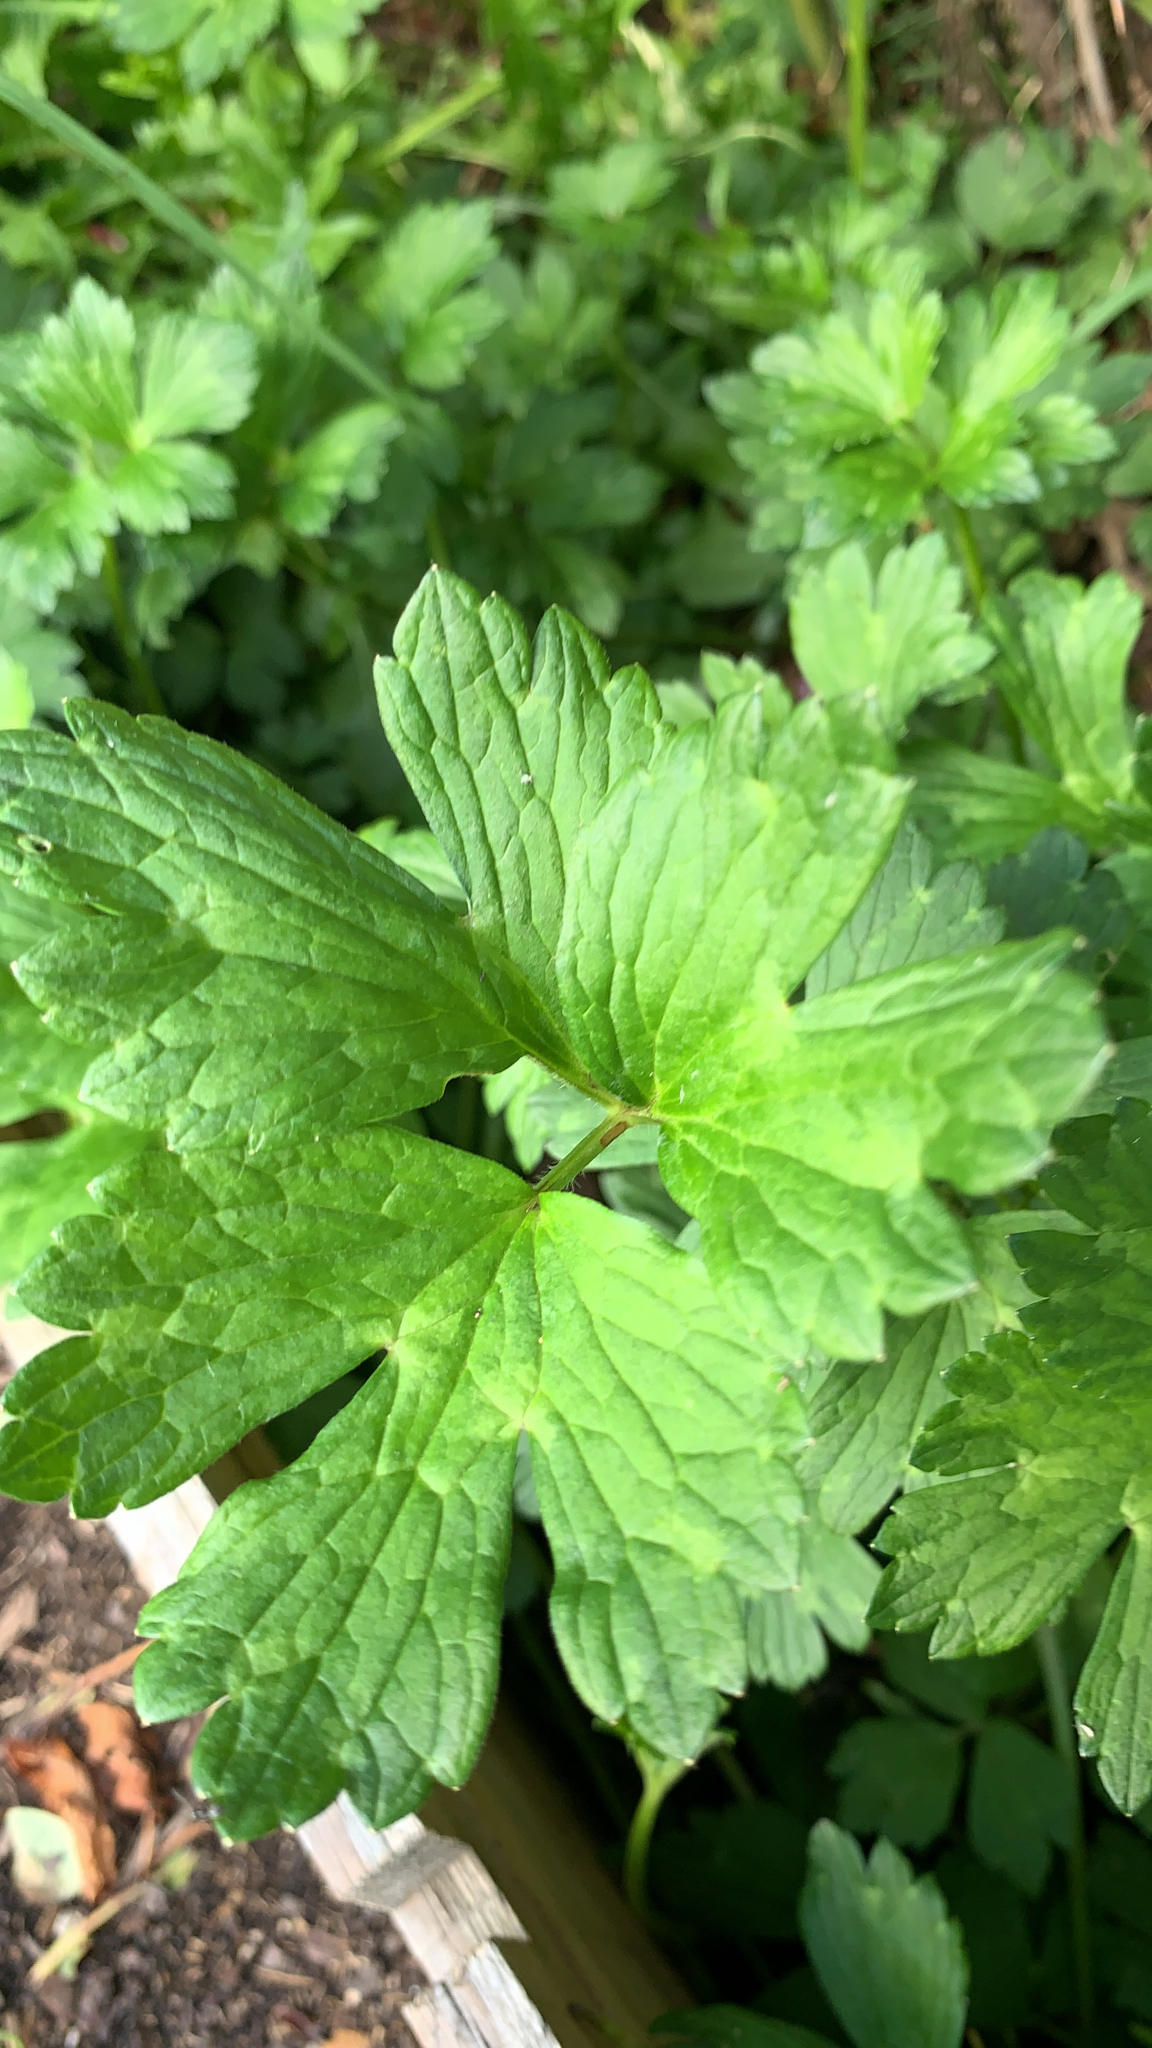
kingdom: Plantae
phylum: Tracheophyta
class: Magnoliopsida
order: Ranunculales
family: Ranunculaceae
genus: Ranunculus
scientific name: Ranunculus repens
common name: Creeping buttercup
